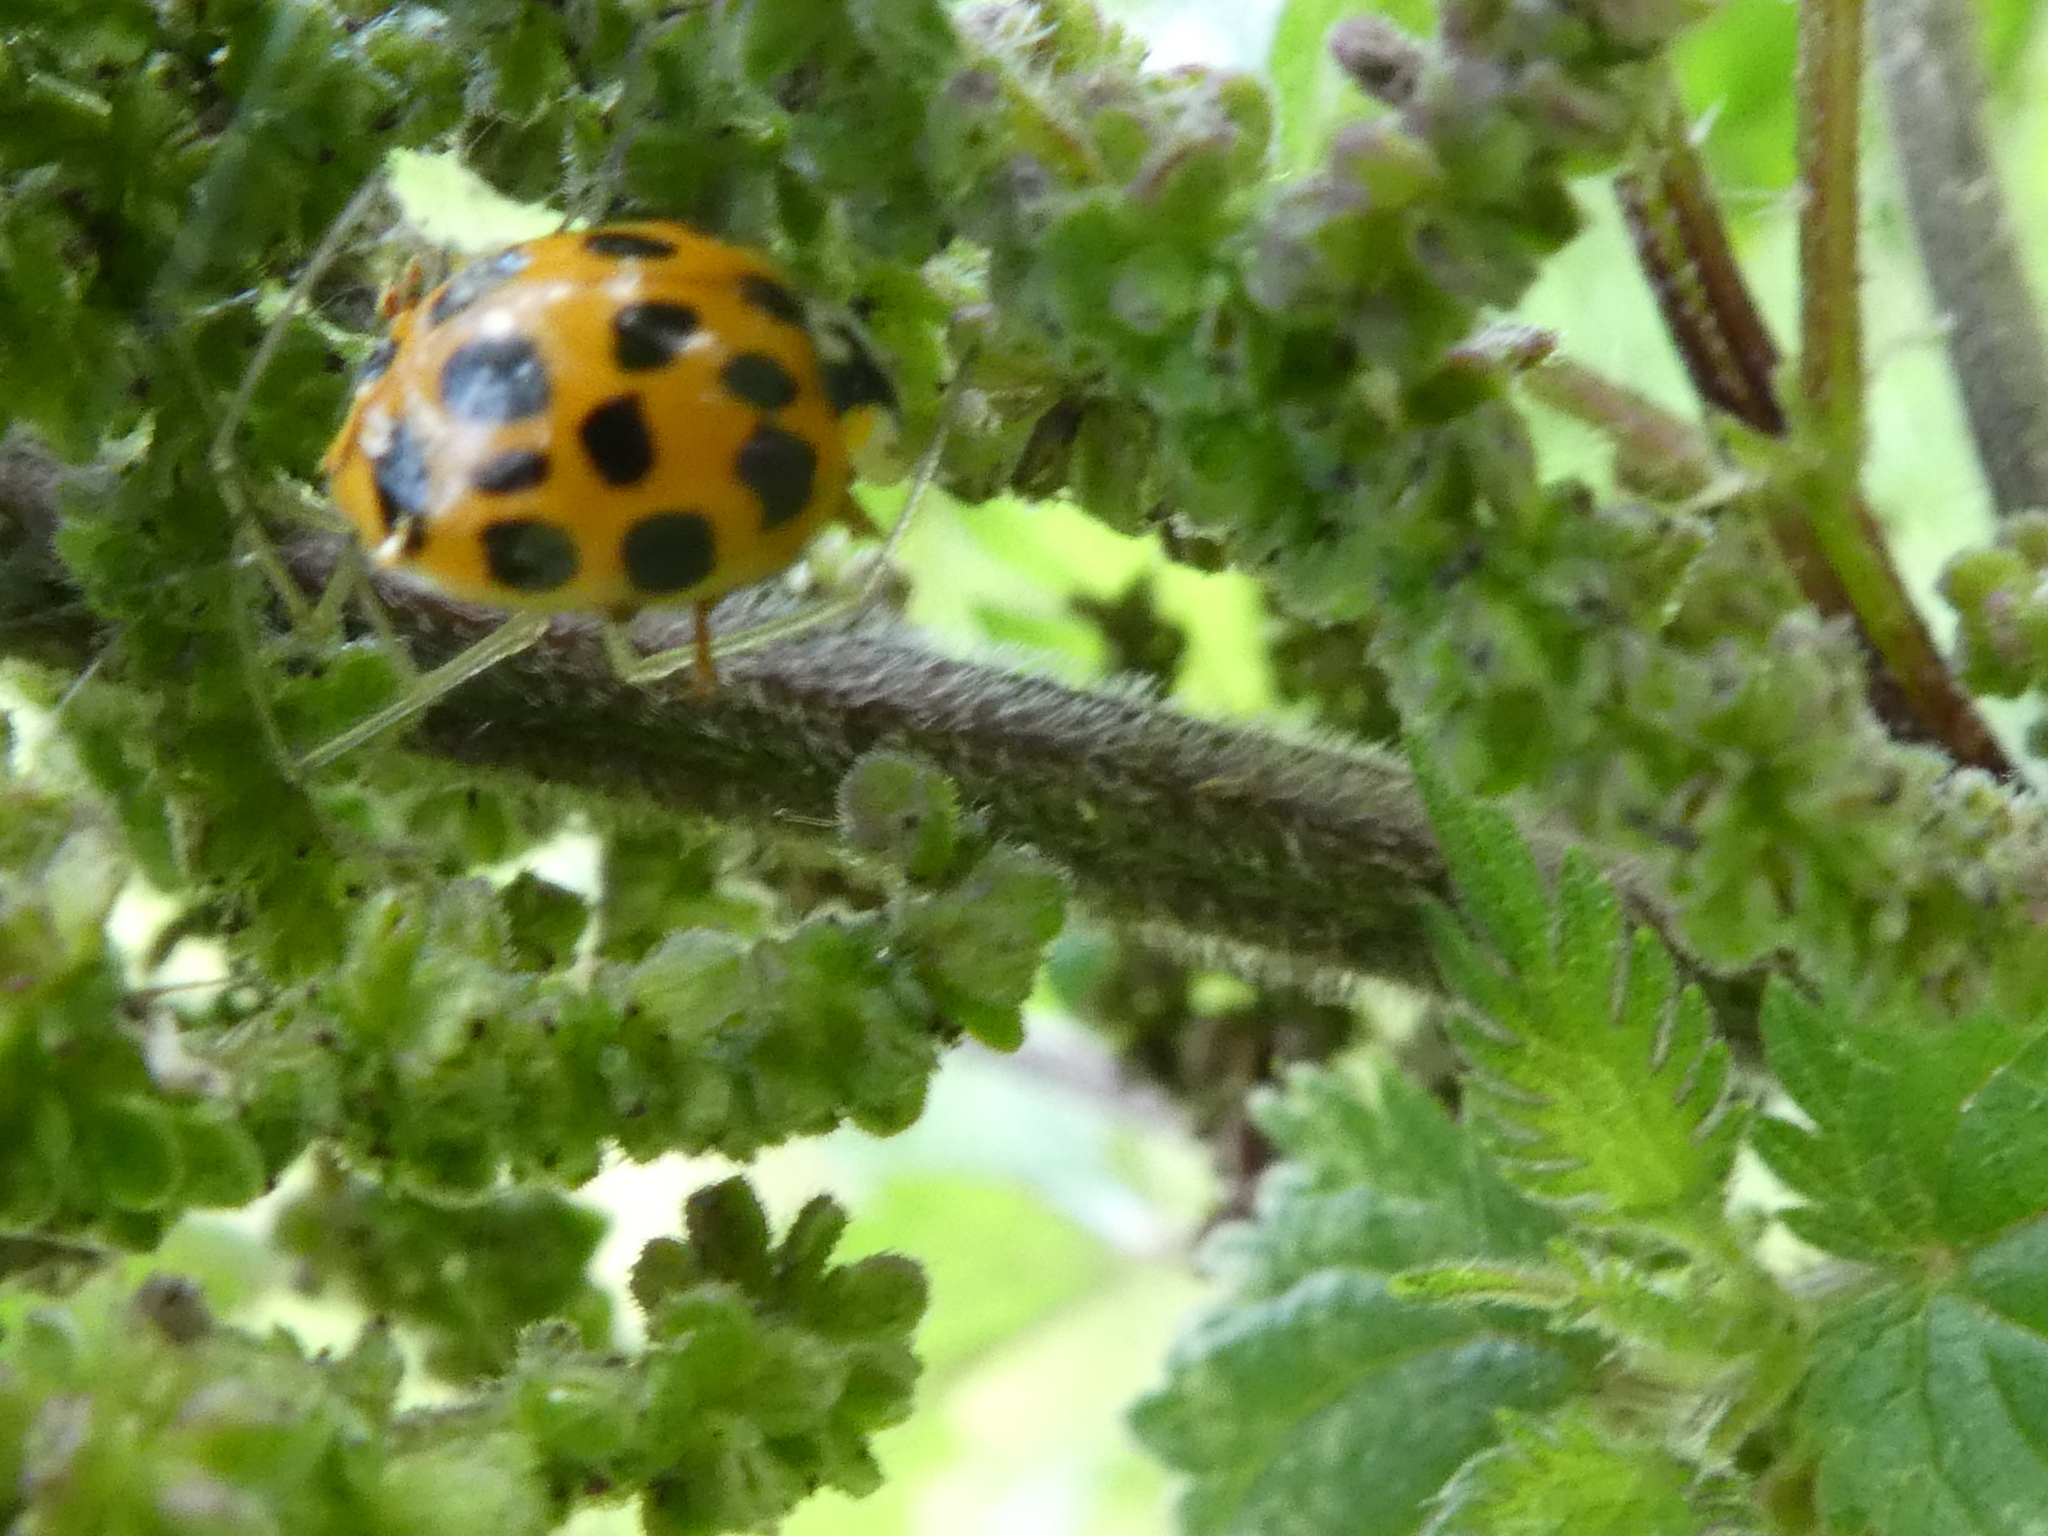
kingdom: Animalia
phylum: Arthropoda
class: Insecta
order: Coleoptera
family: Coccinellidae
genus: Harmonia
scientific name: Harmonia axyridis
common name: Harlequin ladybird
